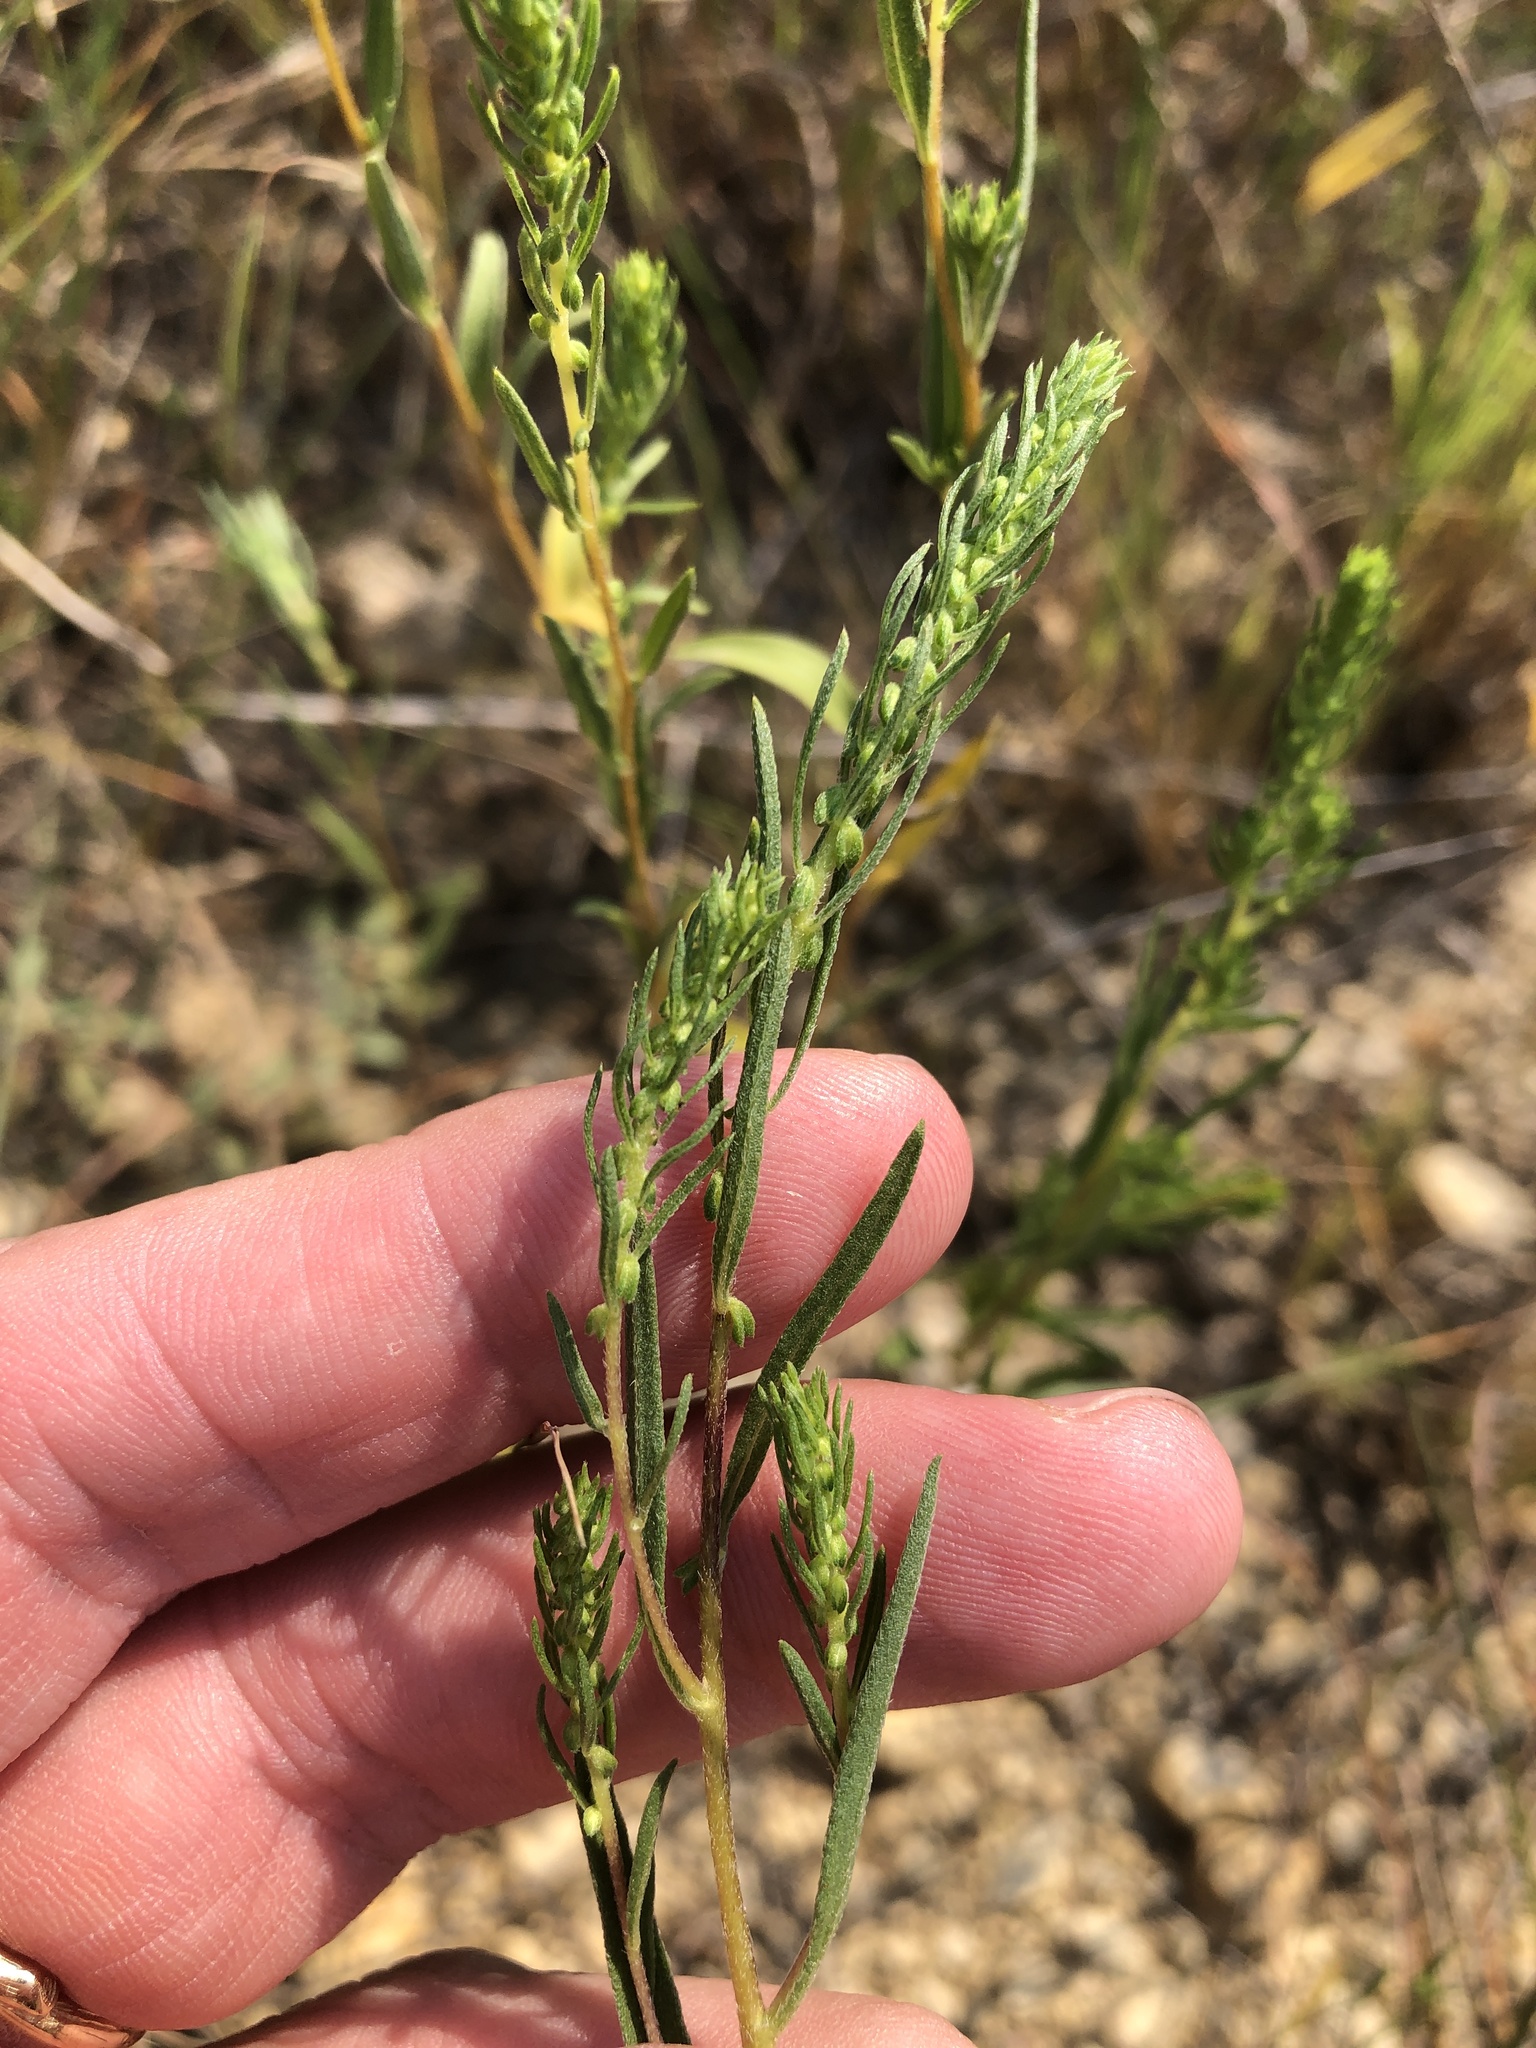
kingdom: Plantae
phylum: Tracheophyta
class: Magnoliopsida
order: Asterales
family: Asteraceae
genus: Iva
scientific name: Iva asperifolia
